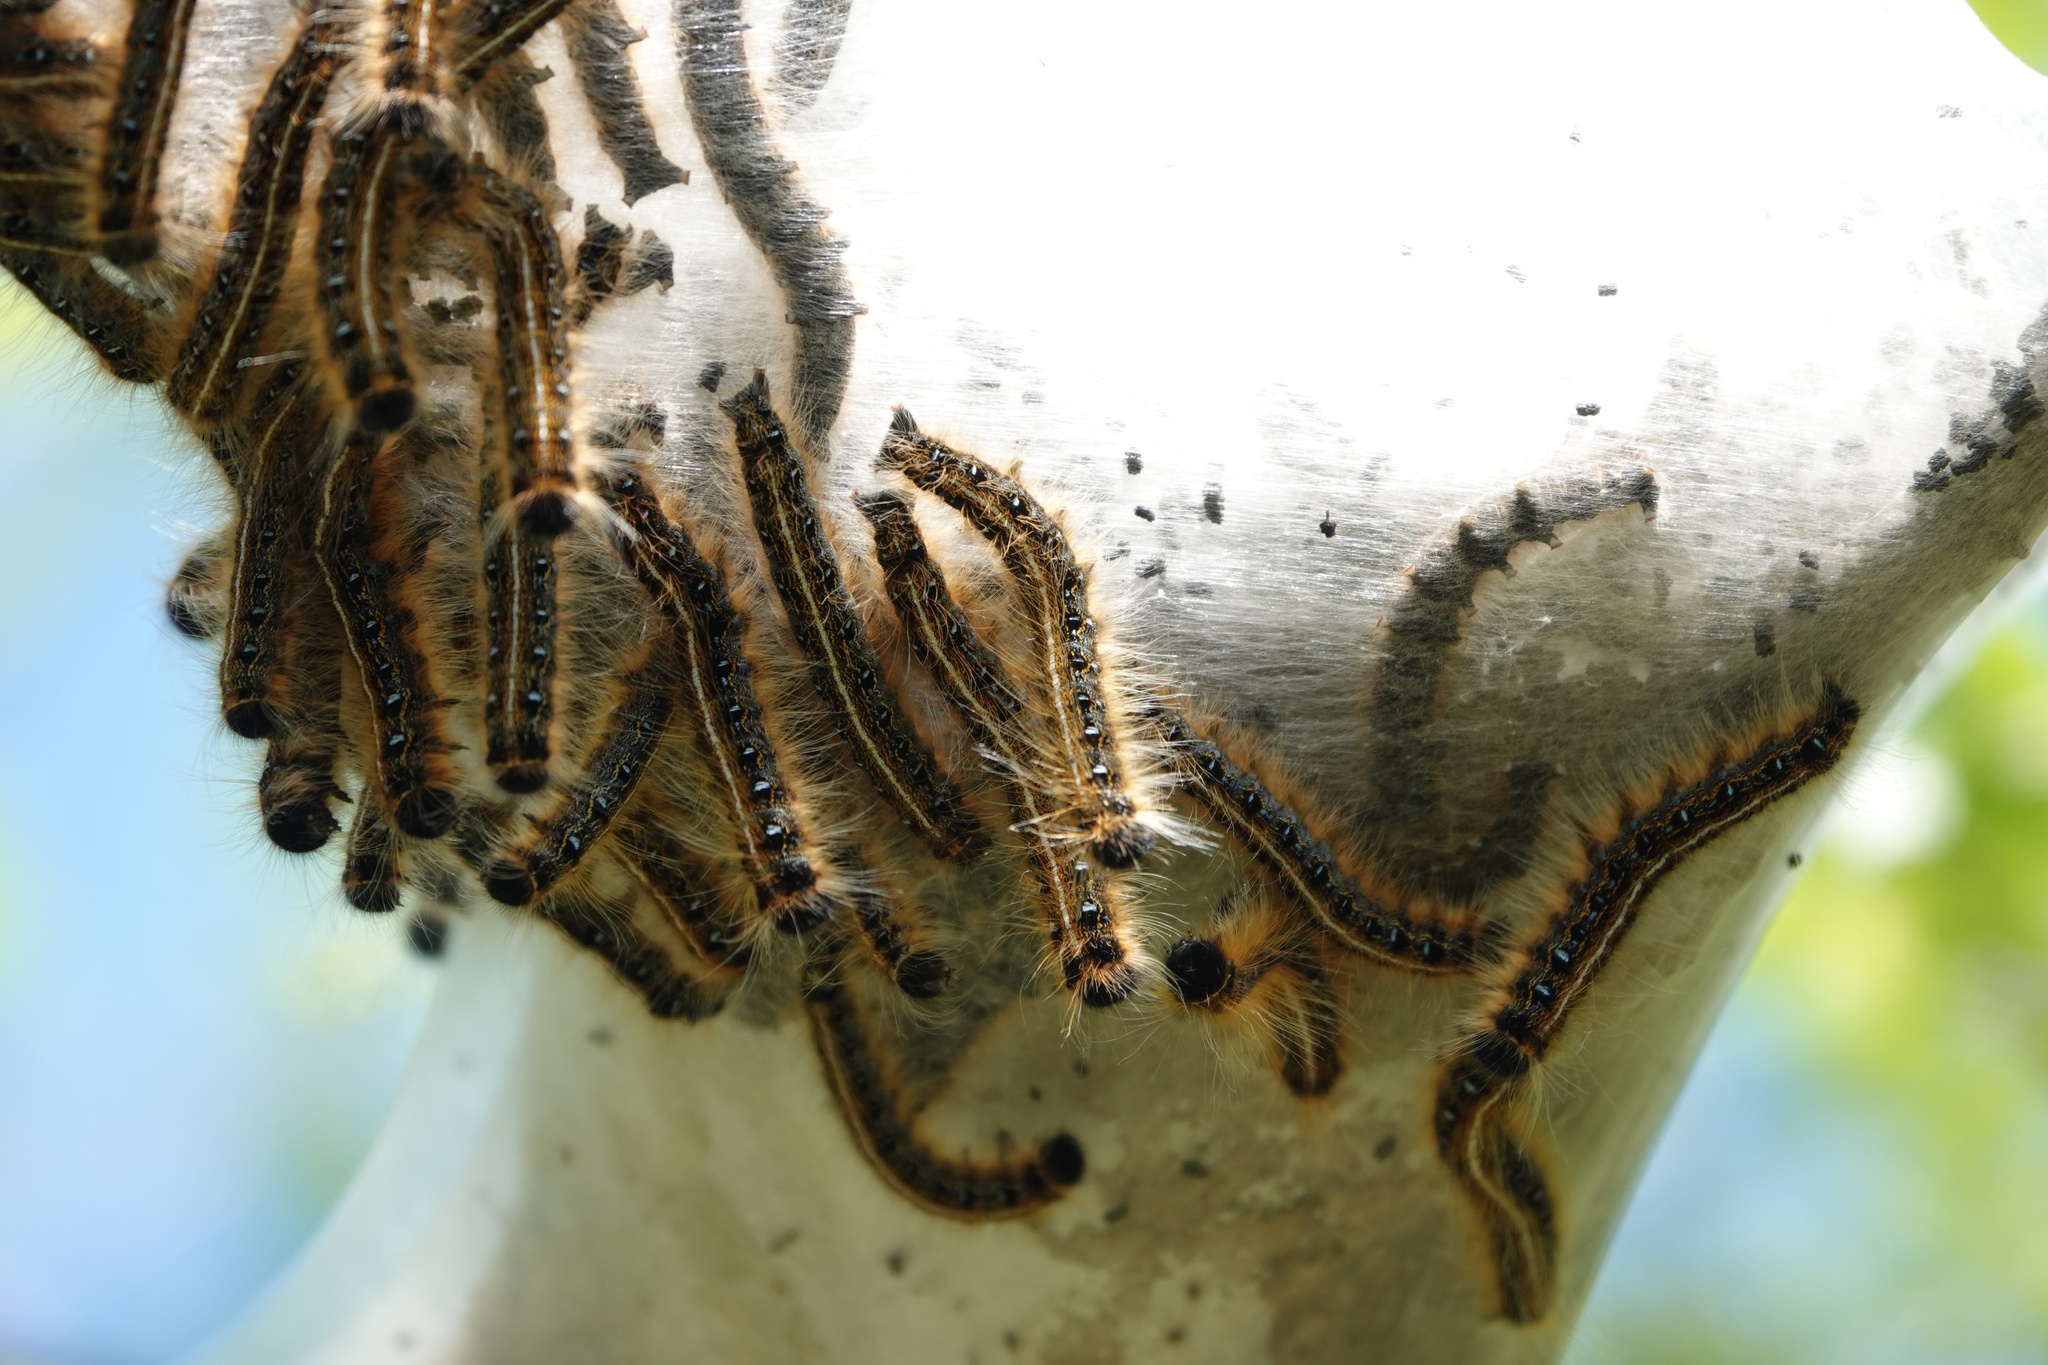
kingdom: Animalia
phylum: Arthropoda
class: Insecta
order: Lepidoptera
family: Lasiocampidae
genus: Malacosoma
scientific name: Malacosoma americana
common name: Eastern tent caterpillar moth
